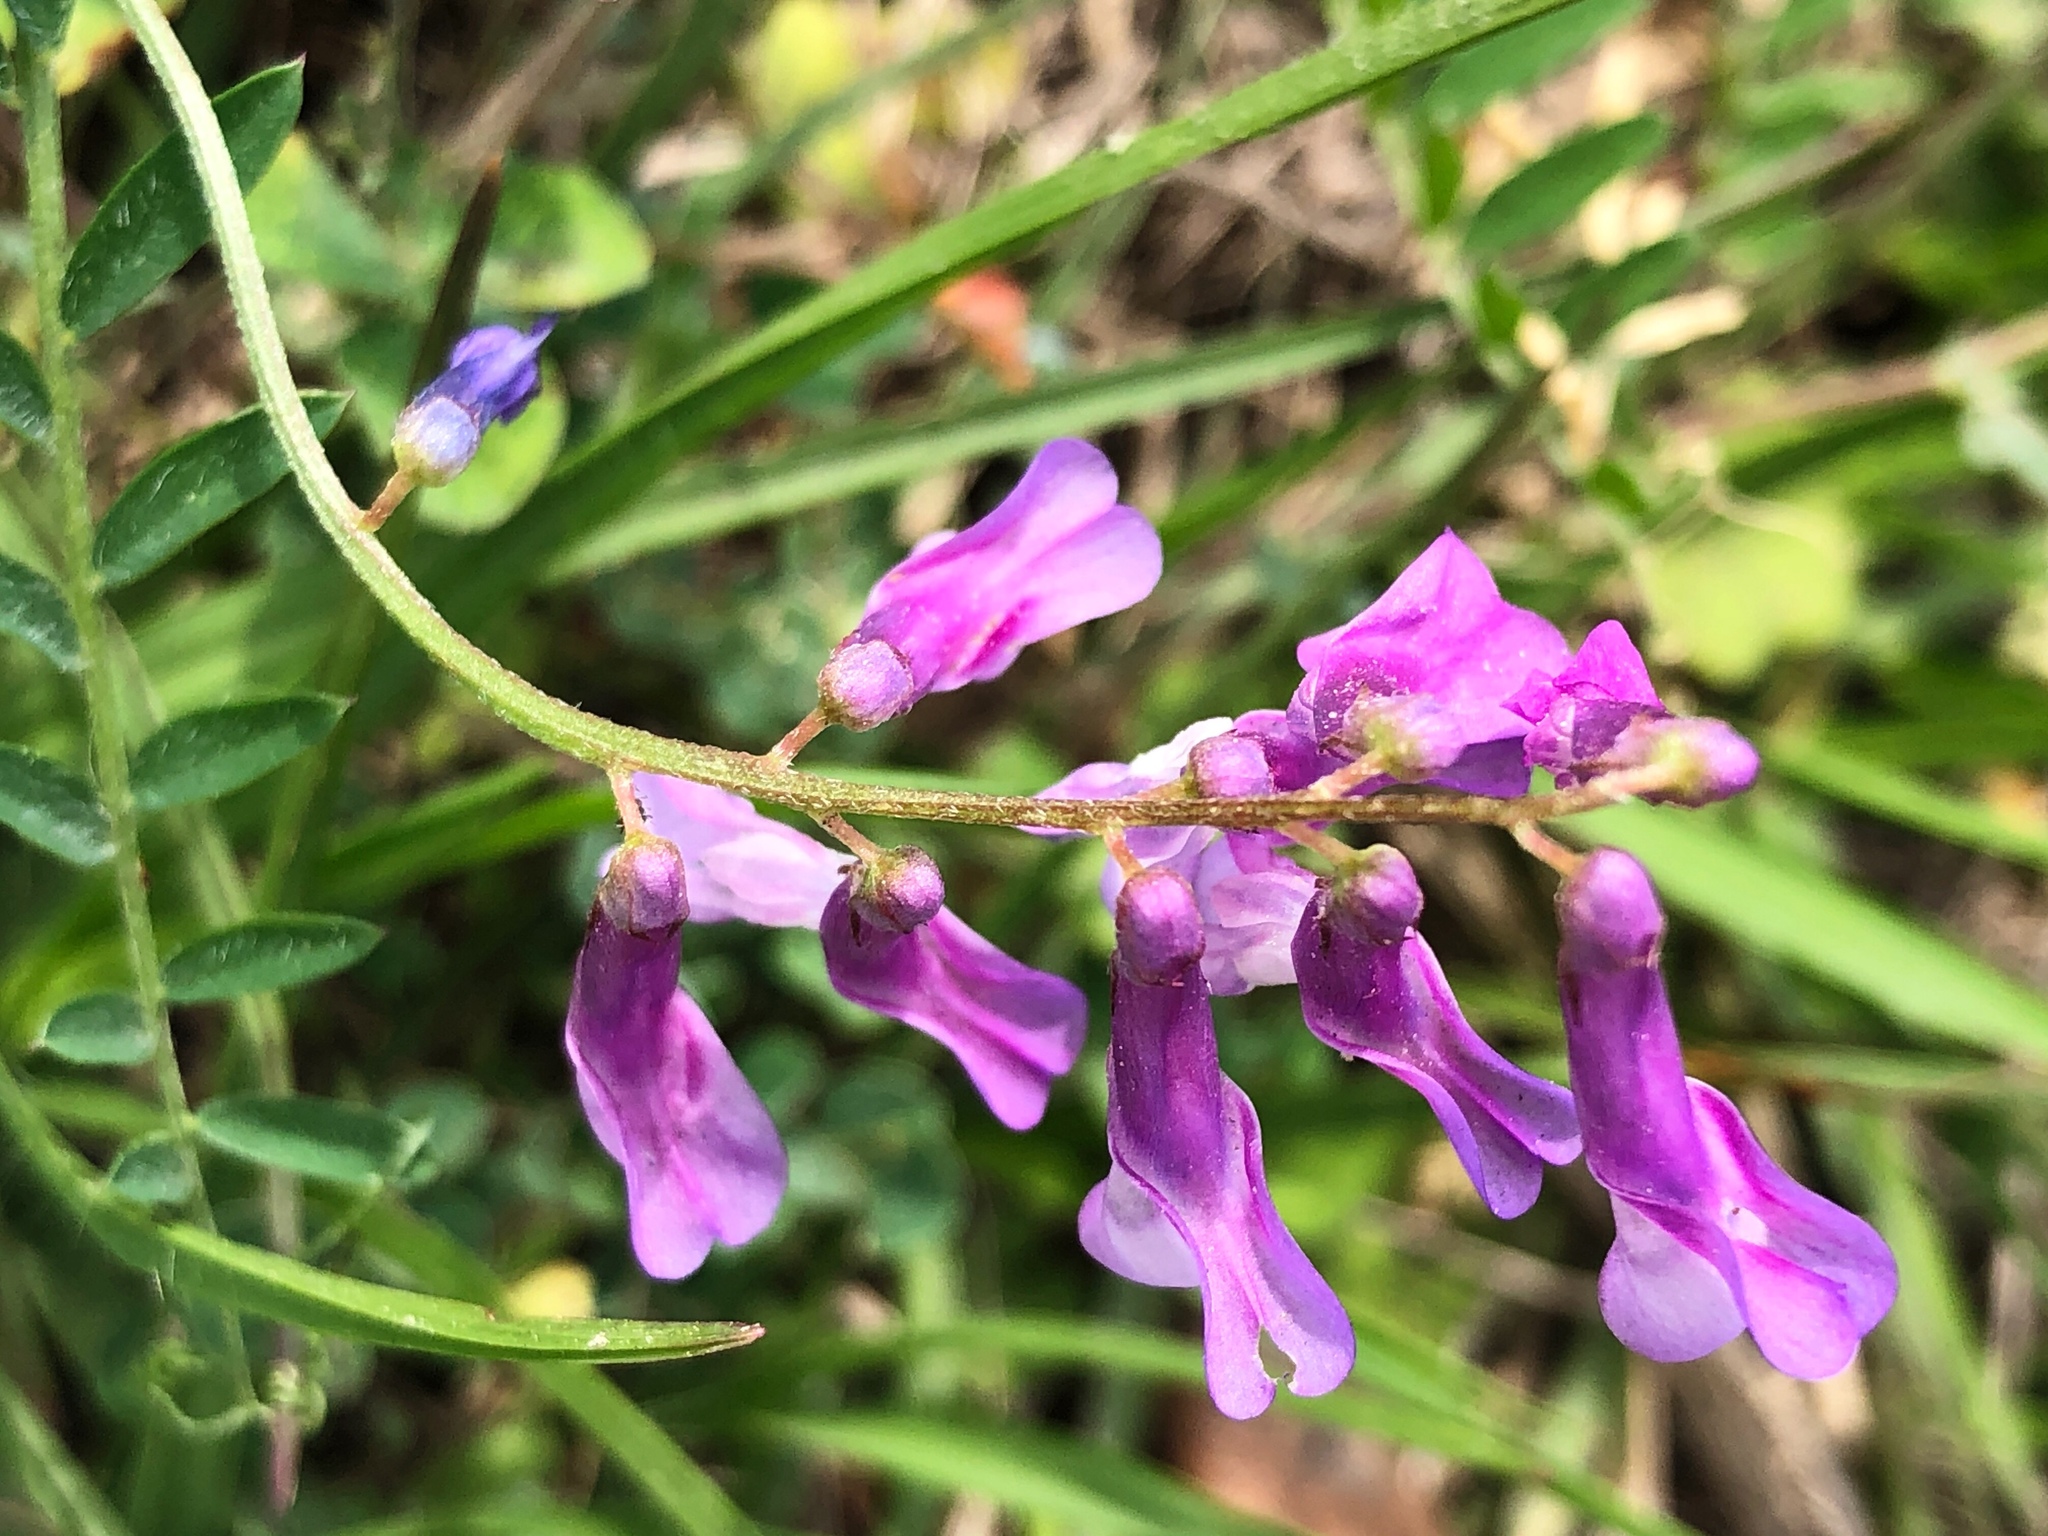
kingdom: Plantae
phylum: Tracheophyta
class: Magnoliopsida
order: Fabales
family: Fabaceae
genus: Vicia
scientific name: Vicia villosa
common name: Fodder vetch
